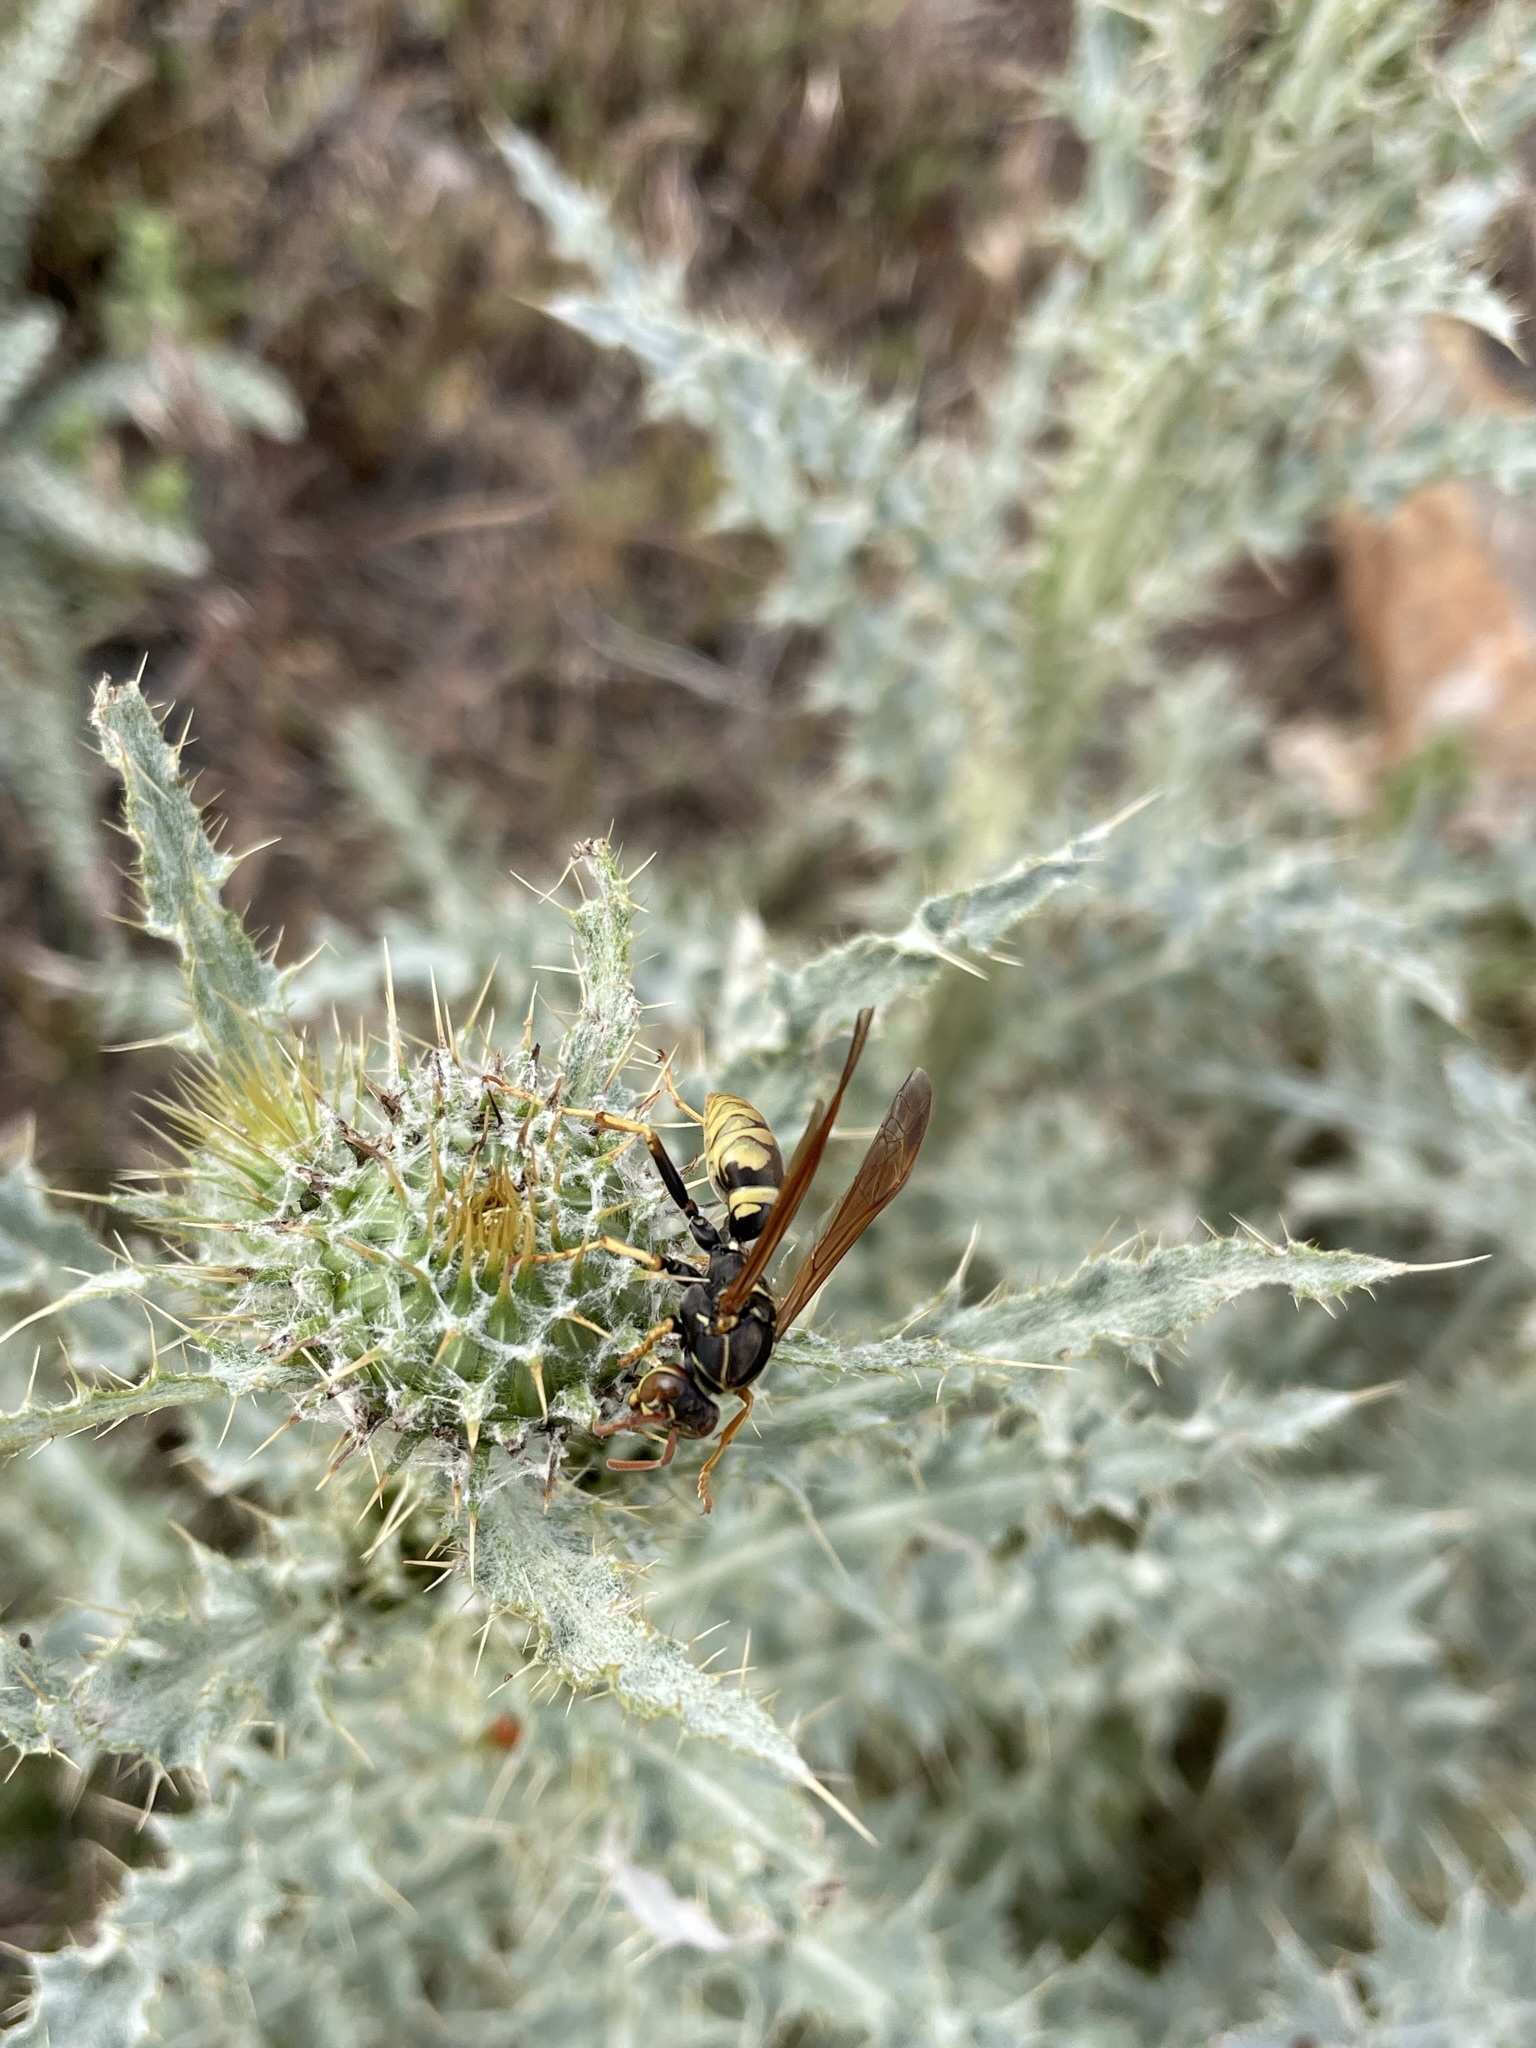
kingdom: Animalia
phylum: Arthropoda
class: Insecta
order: Hymenoptera
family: Eumenidae
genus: Polistes
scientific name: Polistes aurifer
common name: Paper wasp
